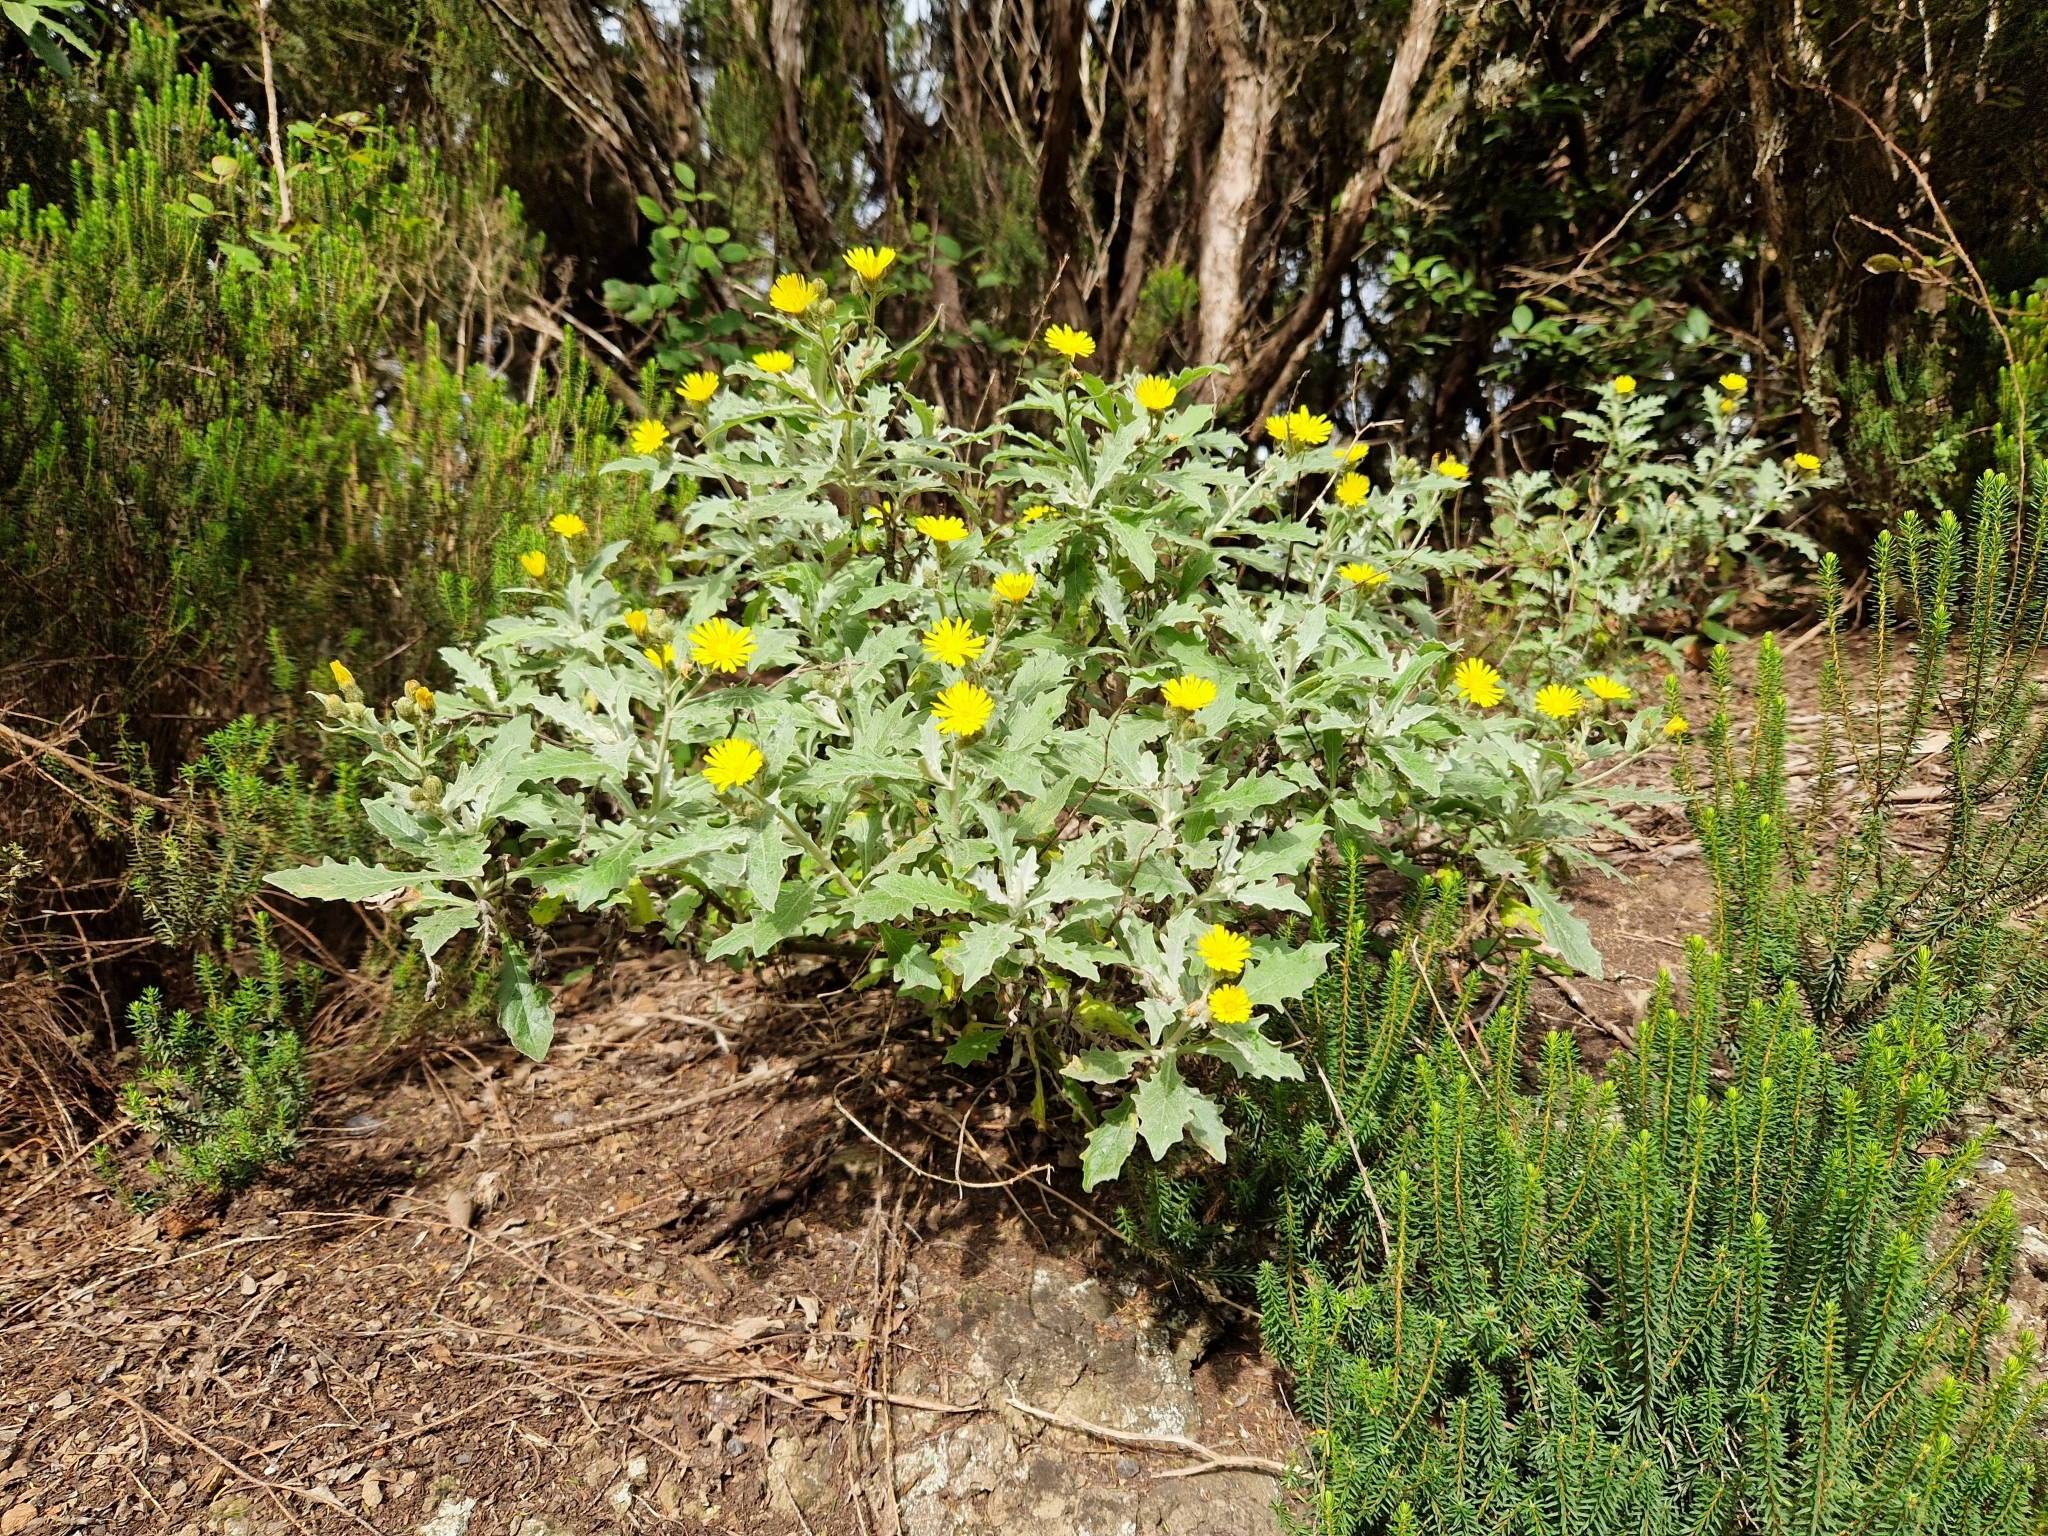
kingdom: Plantae
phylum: Tracheophyta
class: Magnoliopsida
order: Asterales
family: Asteraceae
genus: Andryala
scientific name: Andryala pinnatifida
